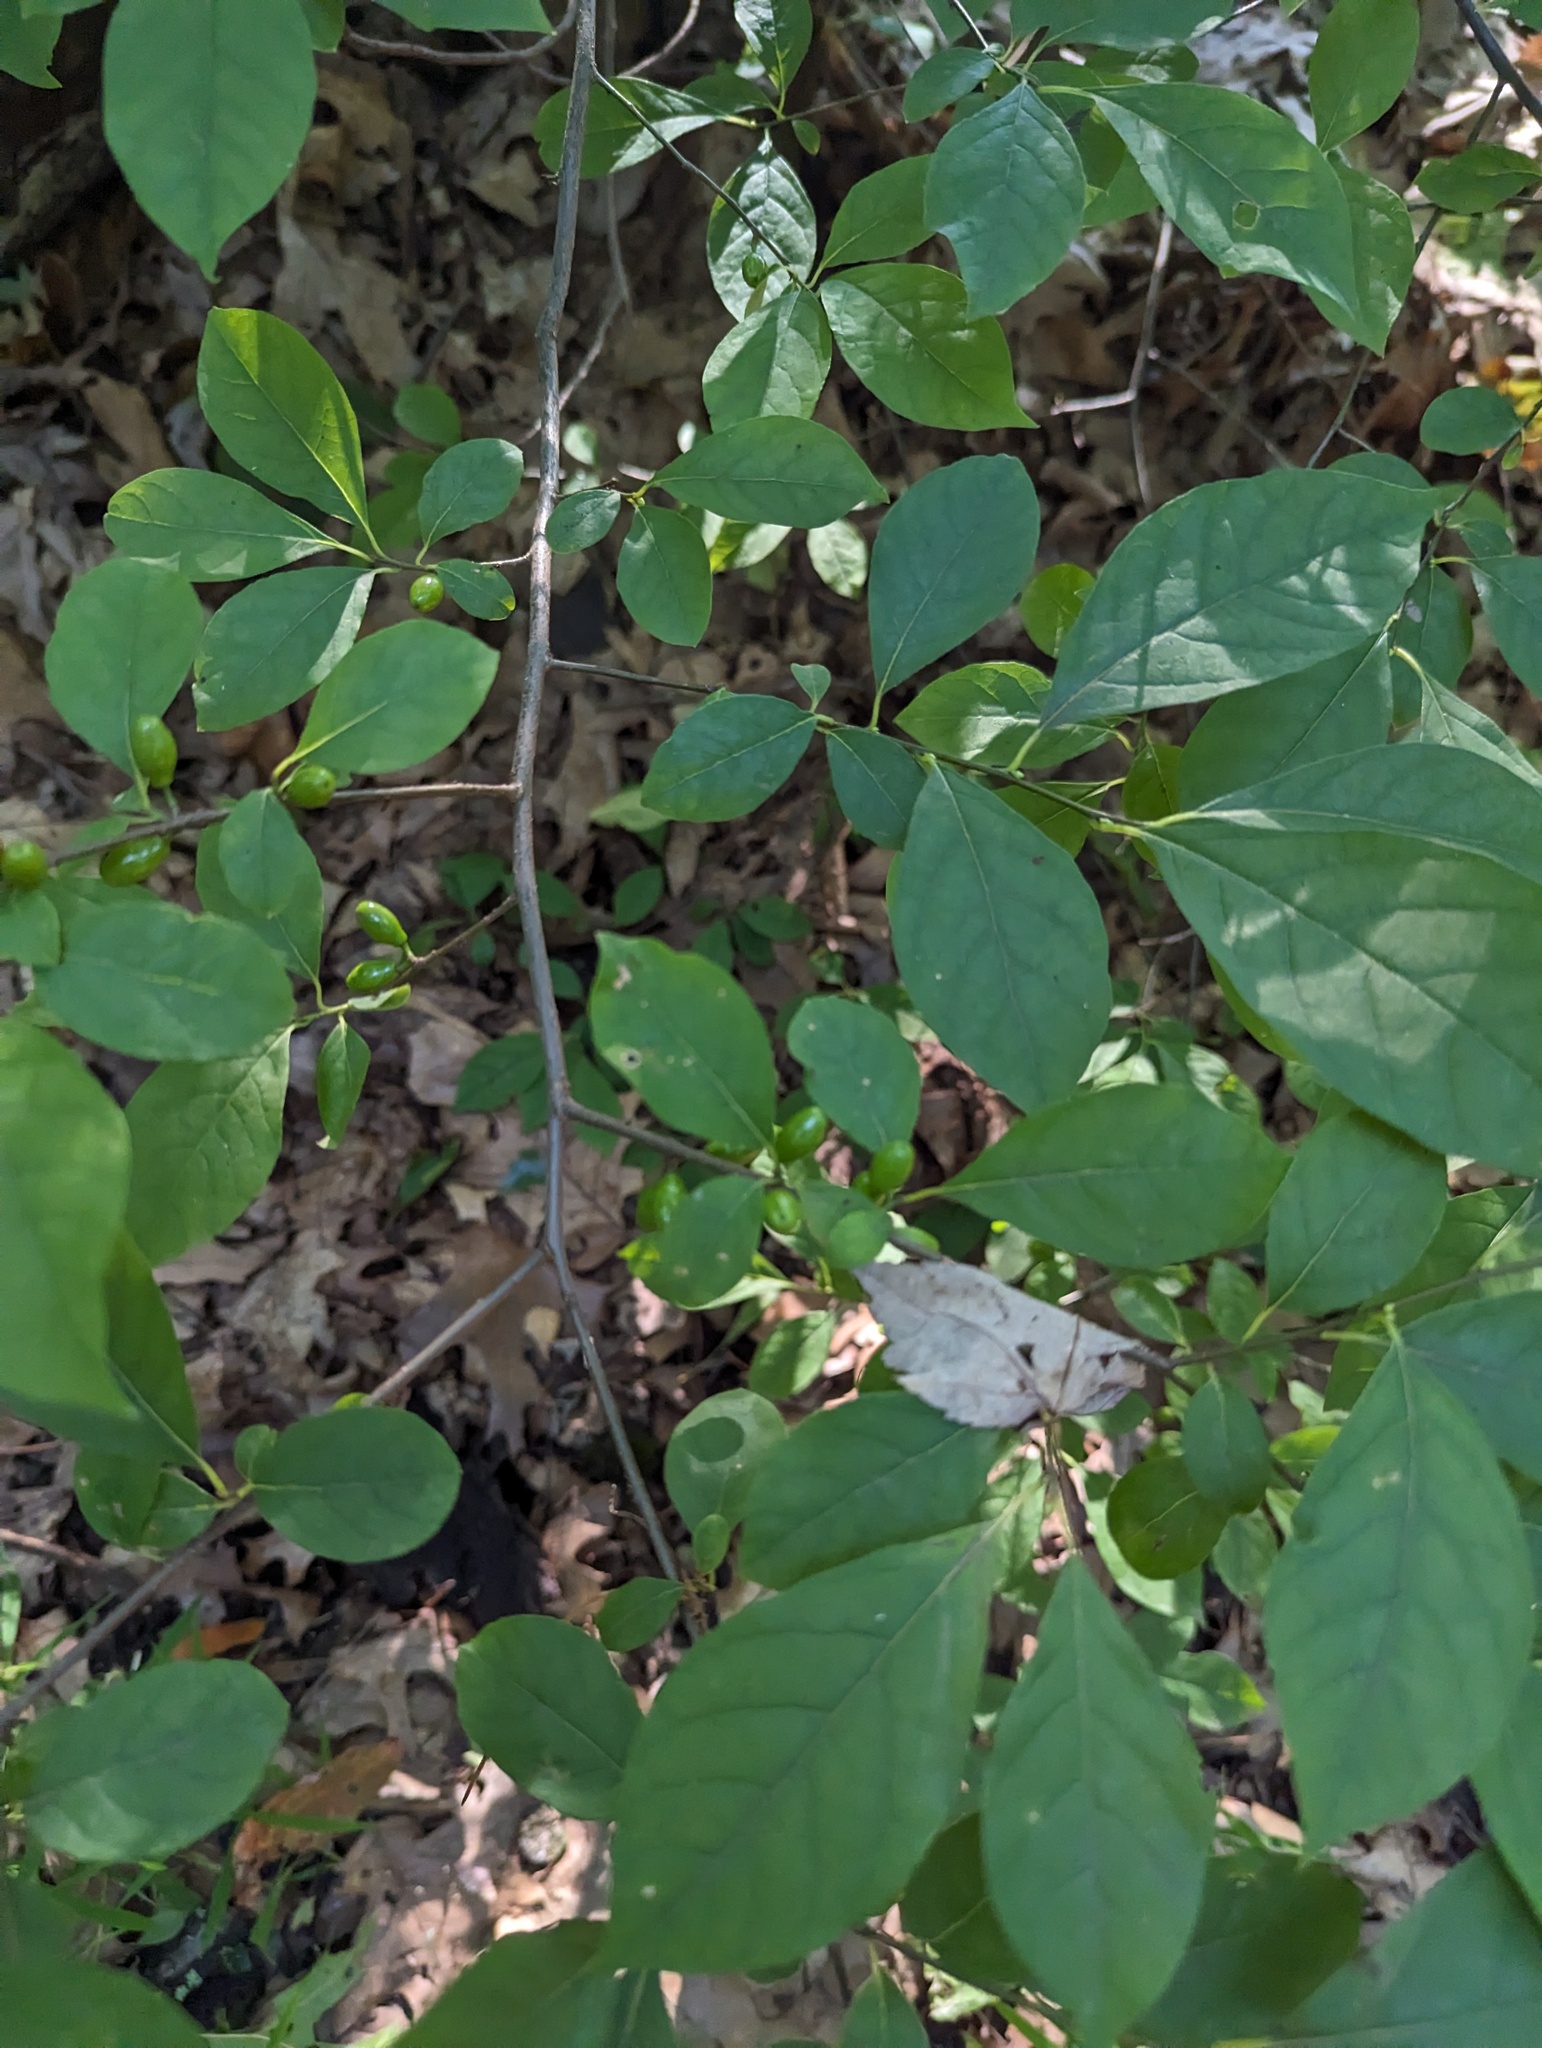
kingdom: Plantae
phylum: Tracheophyta
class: Magnoliopsida
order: Laurales
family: Lauraceae
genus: Lindera
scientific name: Lindera benzoin
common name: Spicebush
